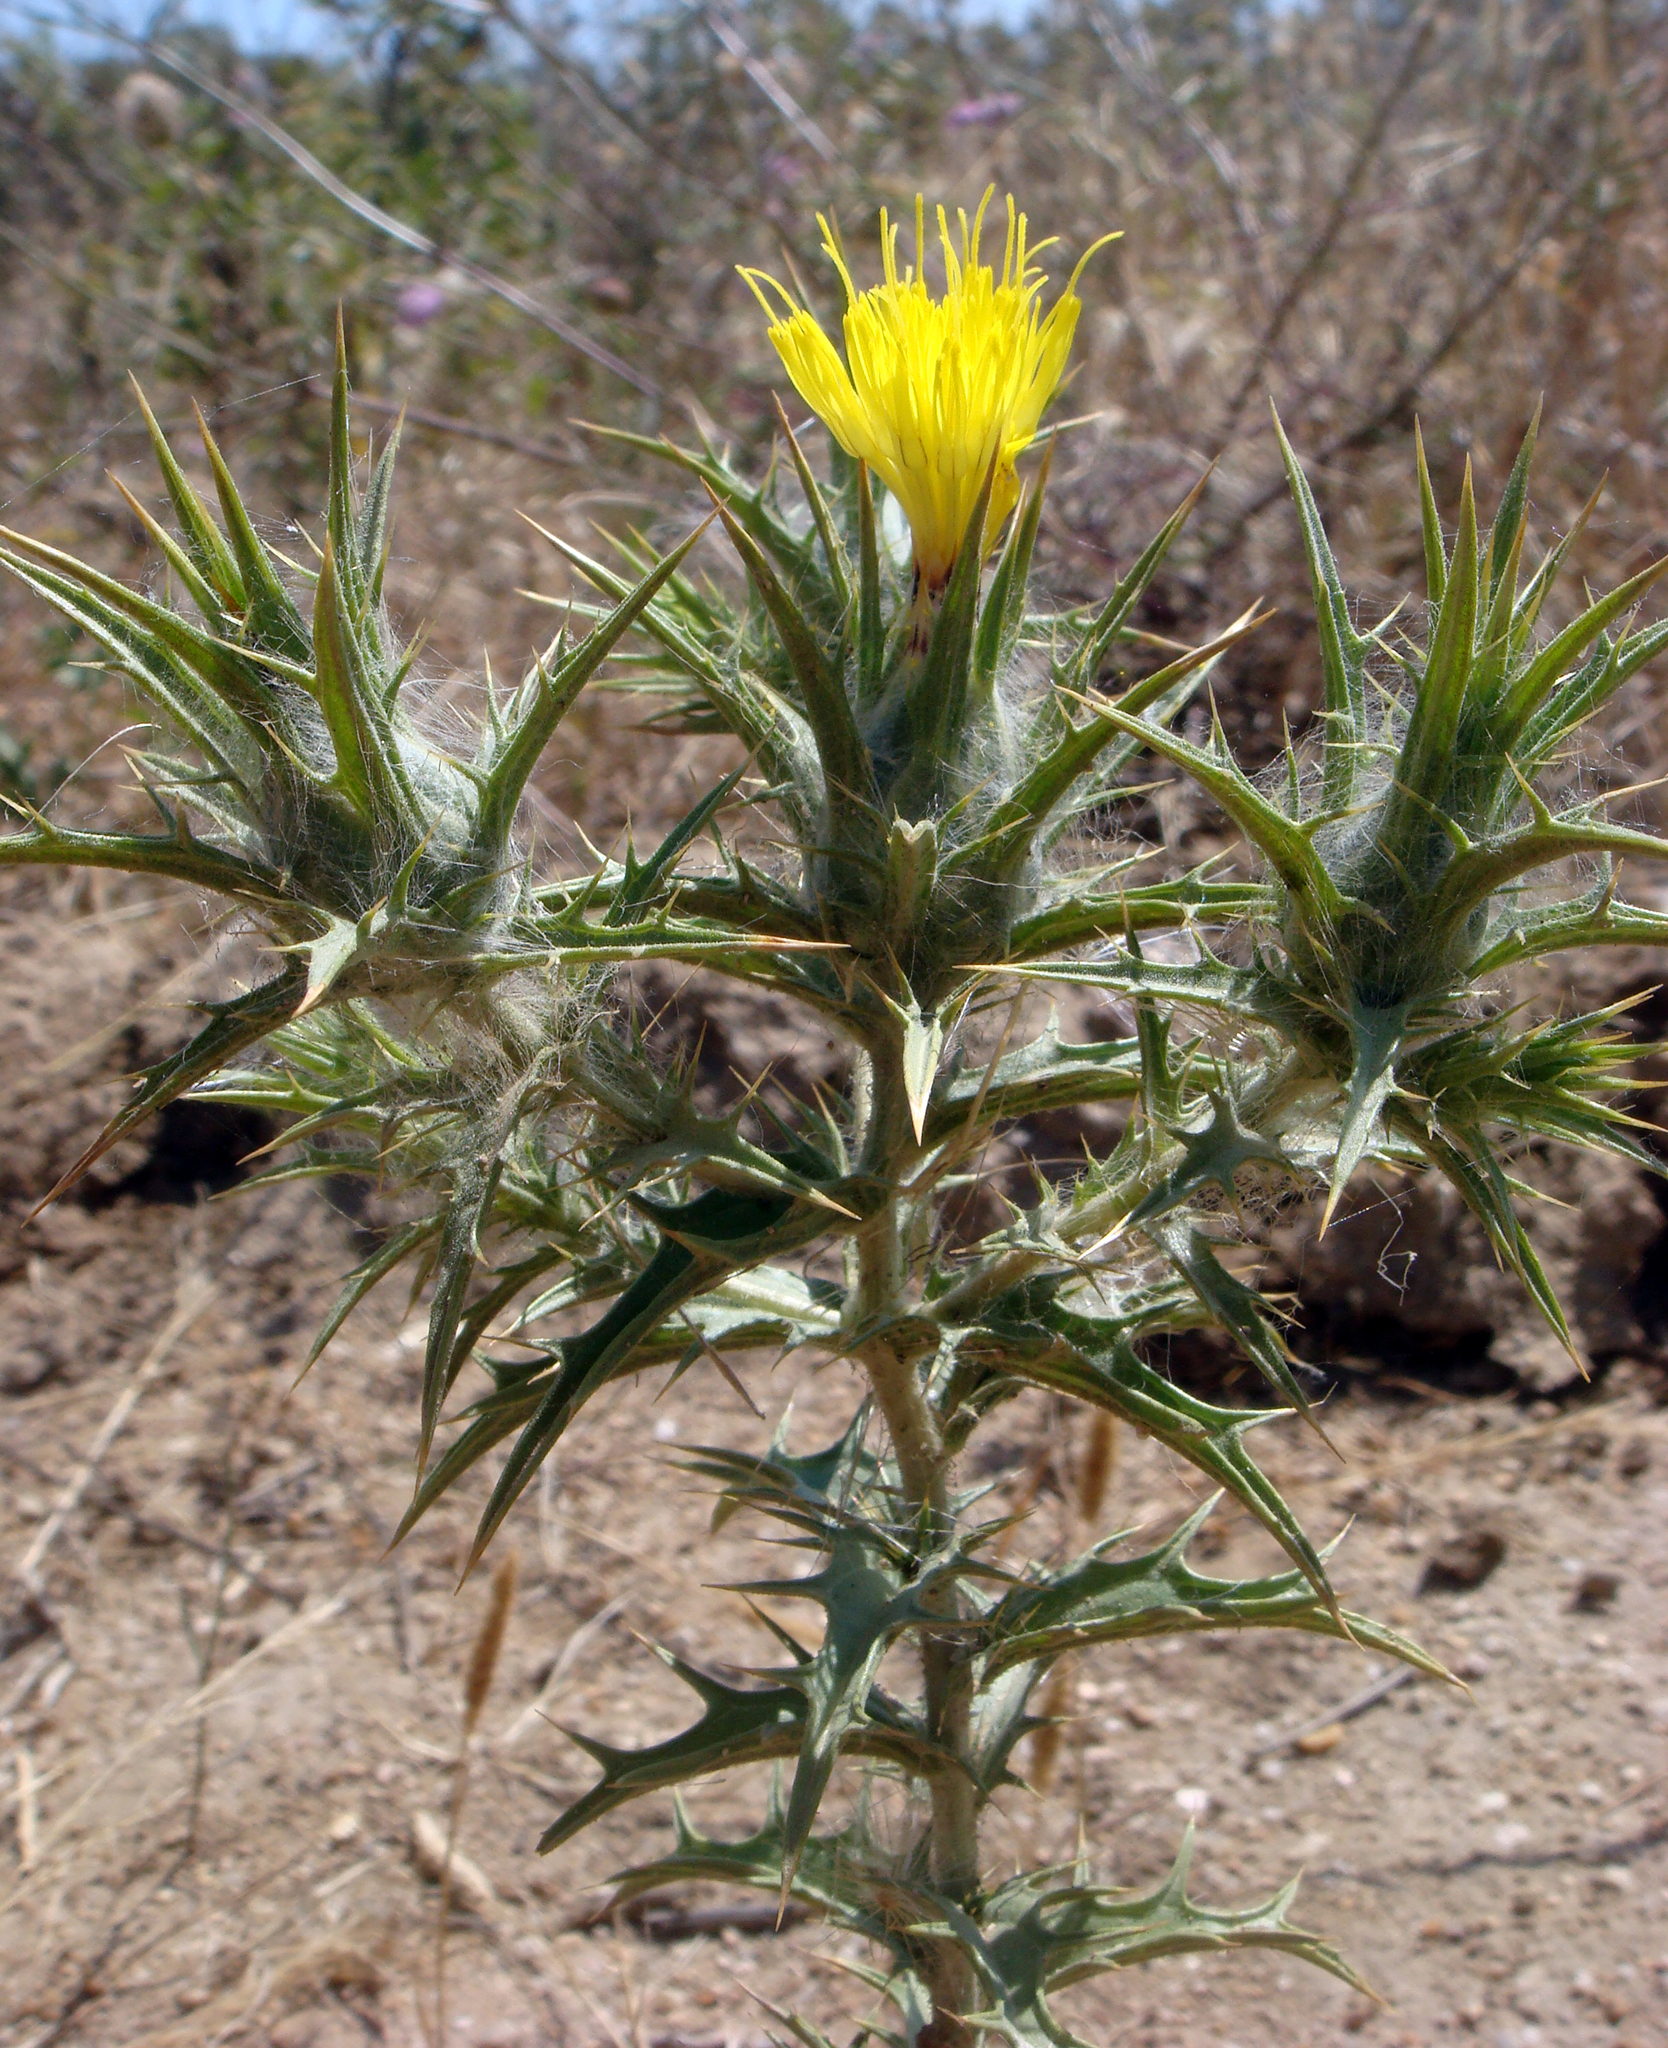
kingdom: Plantae
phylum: Tracheophyta
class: Magnoliopsida
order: Asterales
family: Asteraceae
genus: Carthamus
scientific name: Carthamus lanatus
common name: Downy safflower
